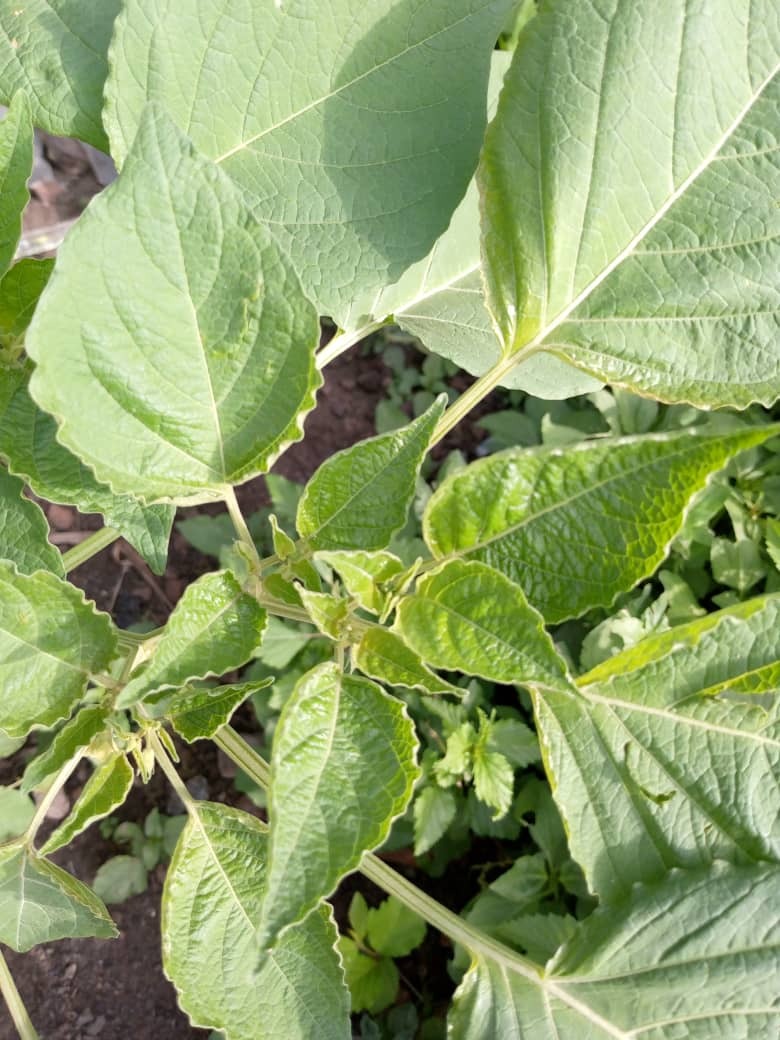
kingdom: Plantae
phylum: Tracheophyta
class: Magnoliopsida
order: Solanales
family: Solanaceae
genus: Physalis
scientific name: Physalis peruviana
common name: Cape-gooseberry
